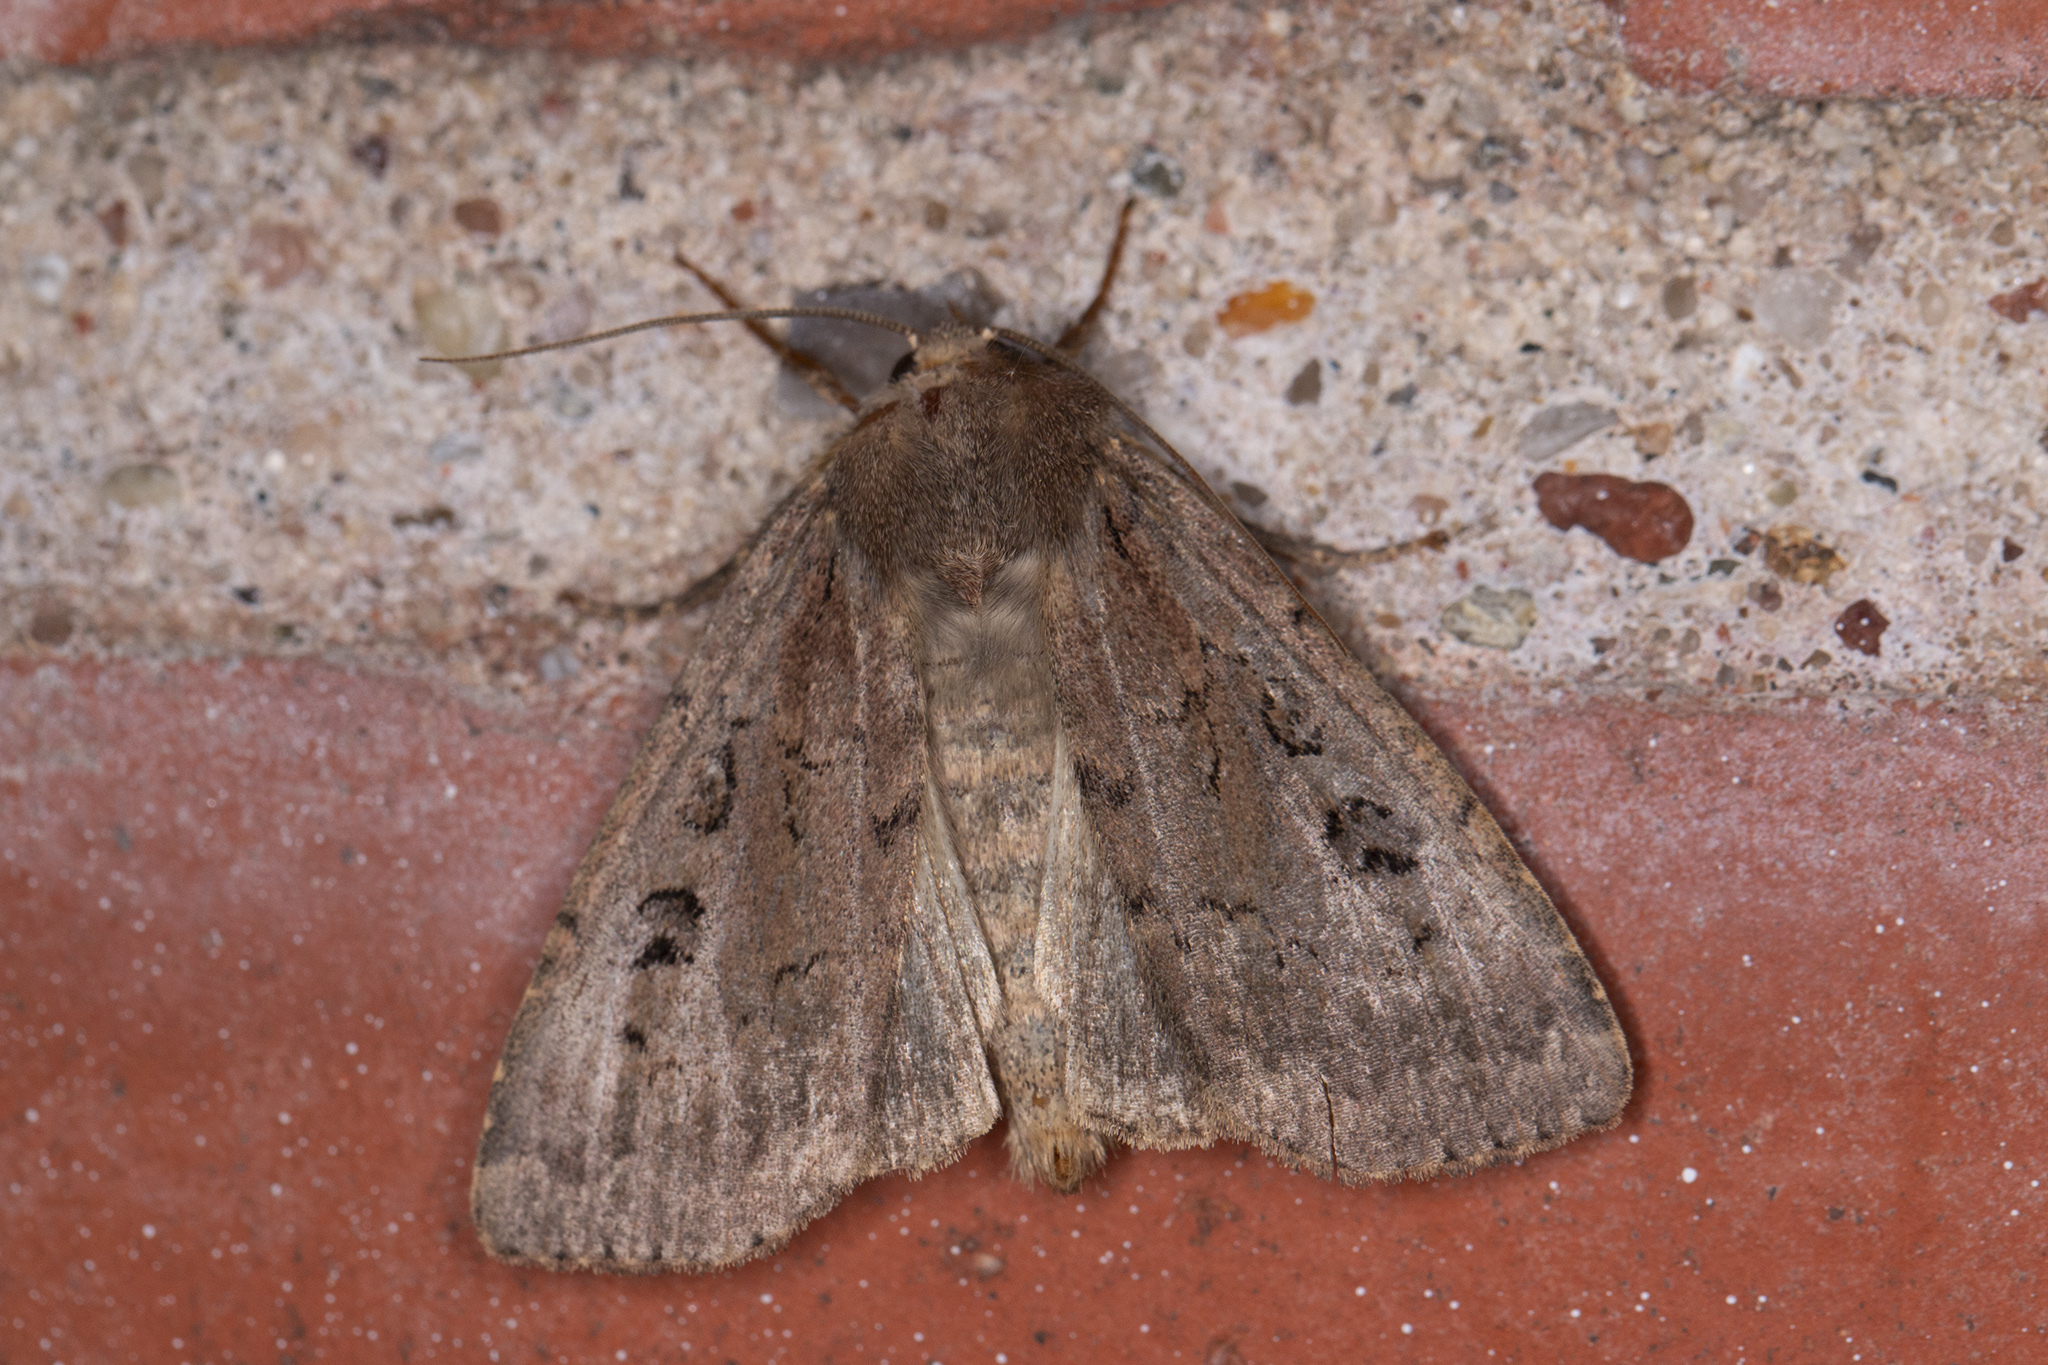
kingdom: Animalia
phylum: Arthropoda
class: Insecta
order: Lepidoptera
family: Noctuidae
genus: Graphiphora
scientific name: Graphiphora augur
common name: Double dart
